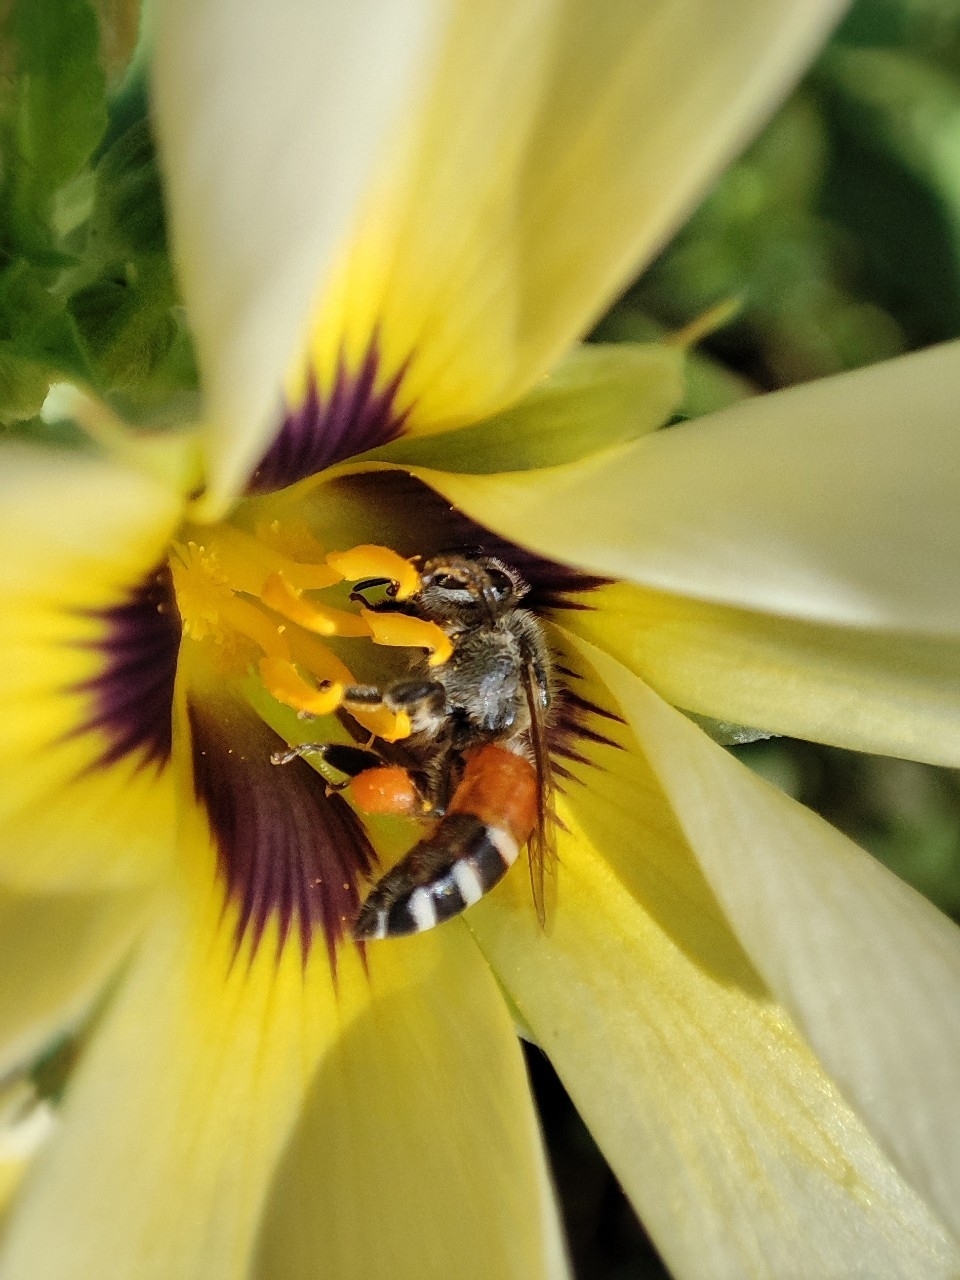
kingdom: Animalia
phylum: Arthropoda
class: Insecta
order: Hymenoptera
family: Apidae
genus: Apis
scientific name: Apis florea
